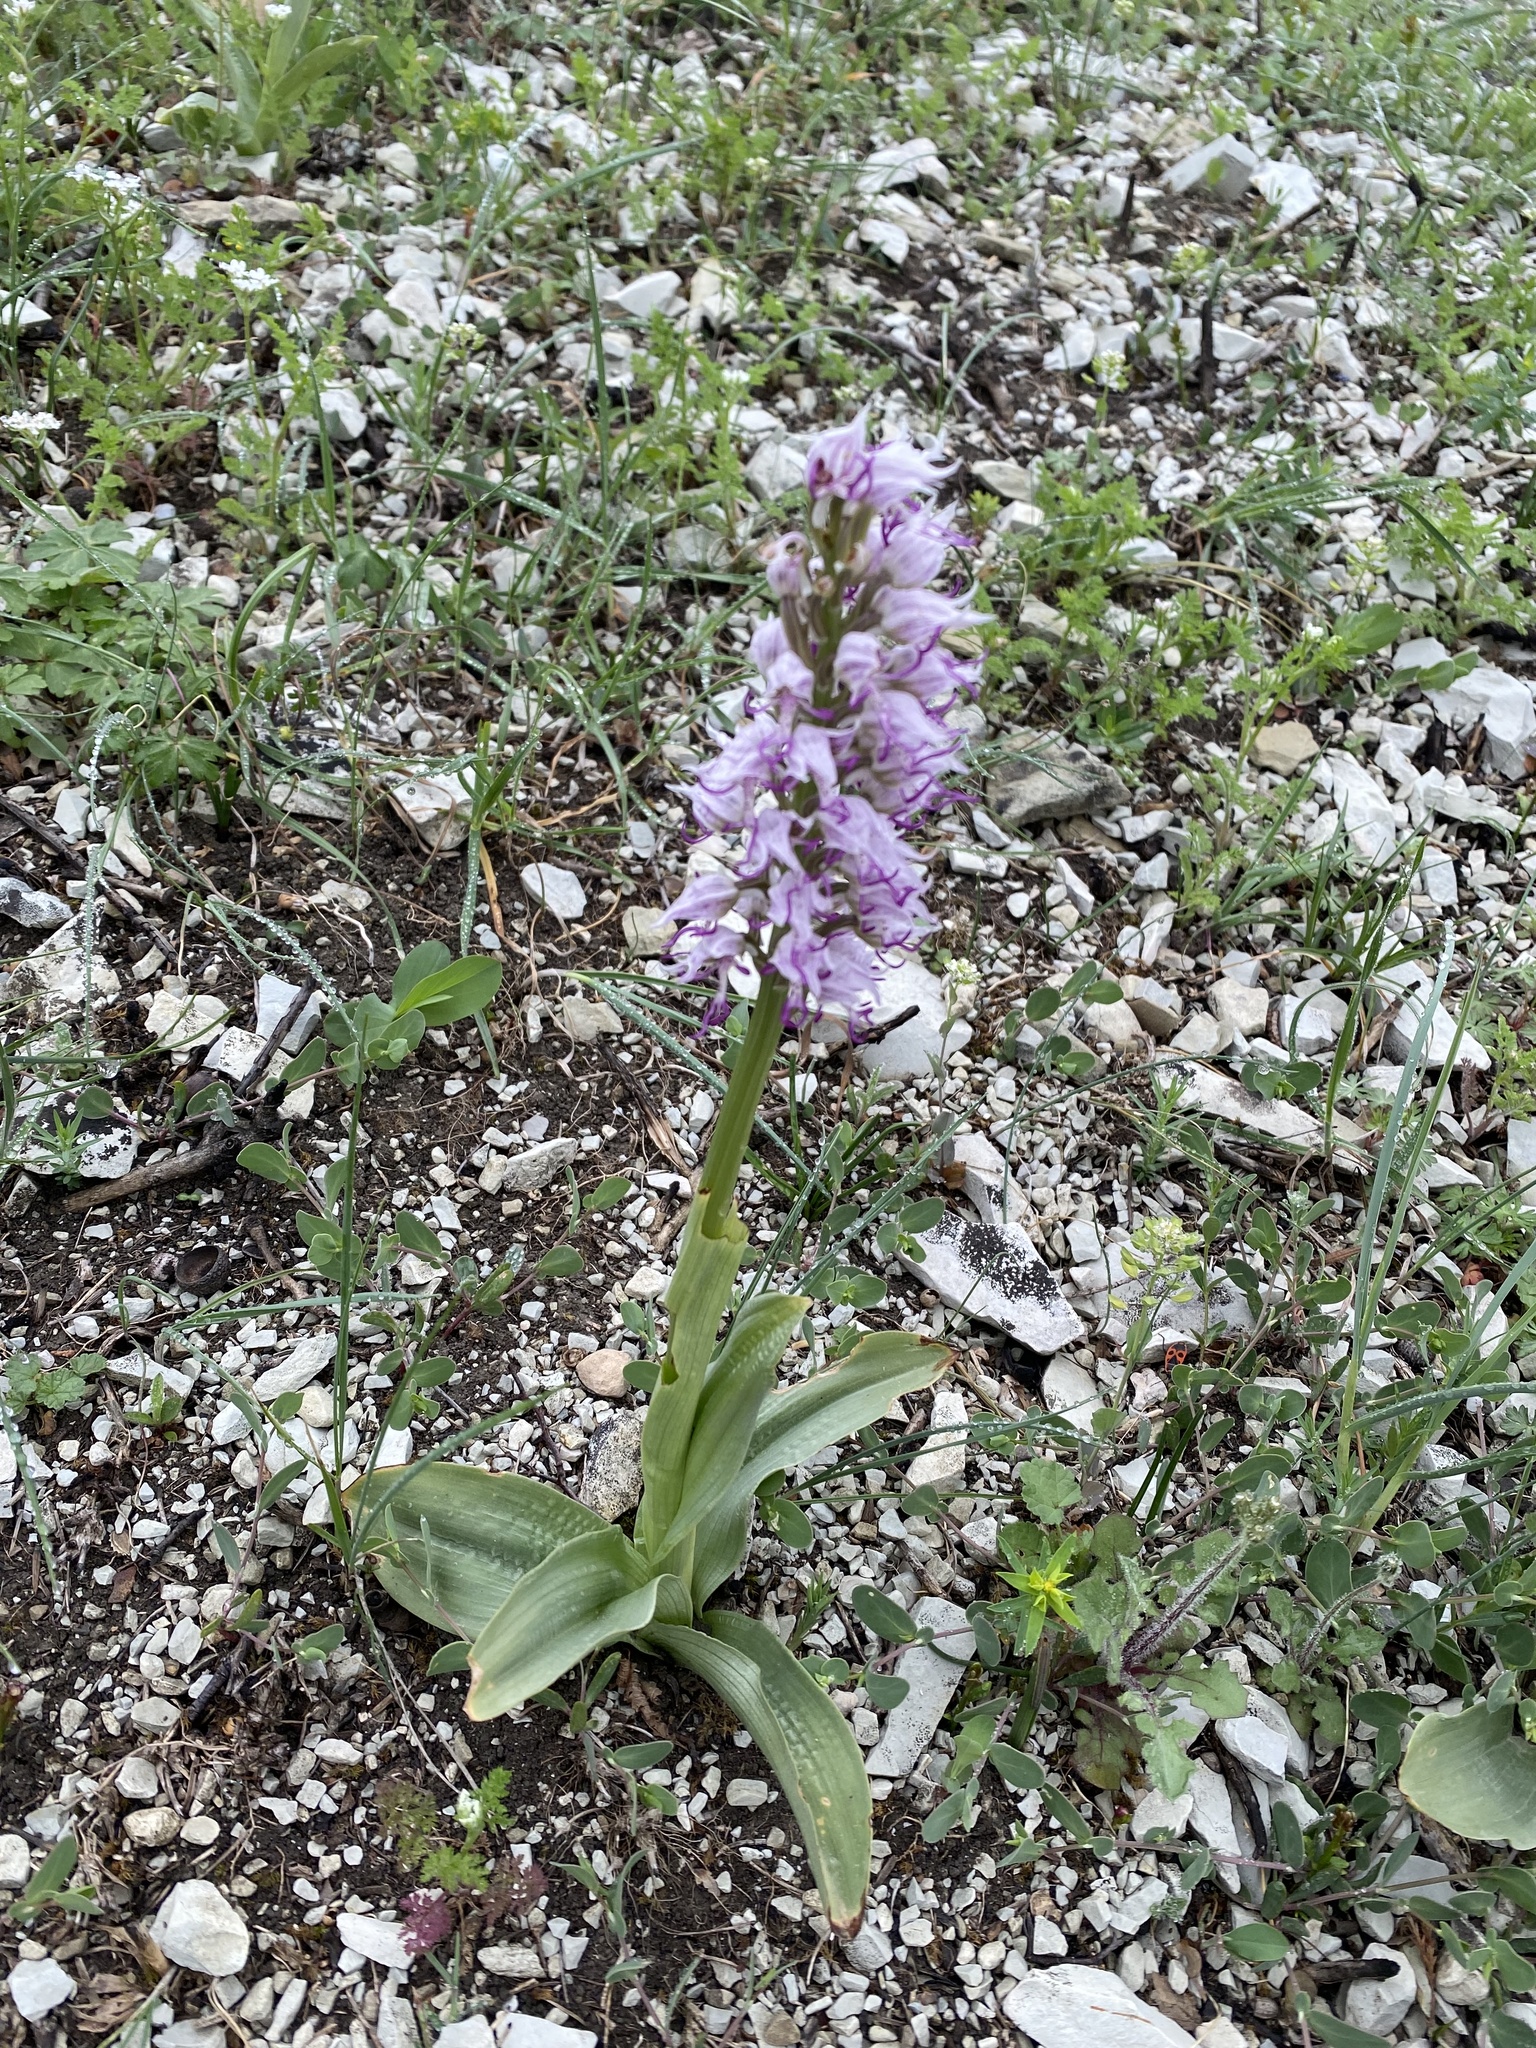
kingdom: Plantae
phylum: Tracheophyta
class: Liliopsida
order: Asparagales
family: Orchidaceae
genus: Orchis
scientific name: Orchis simia
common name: Monkey orchid
